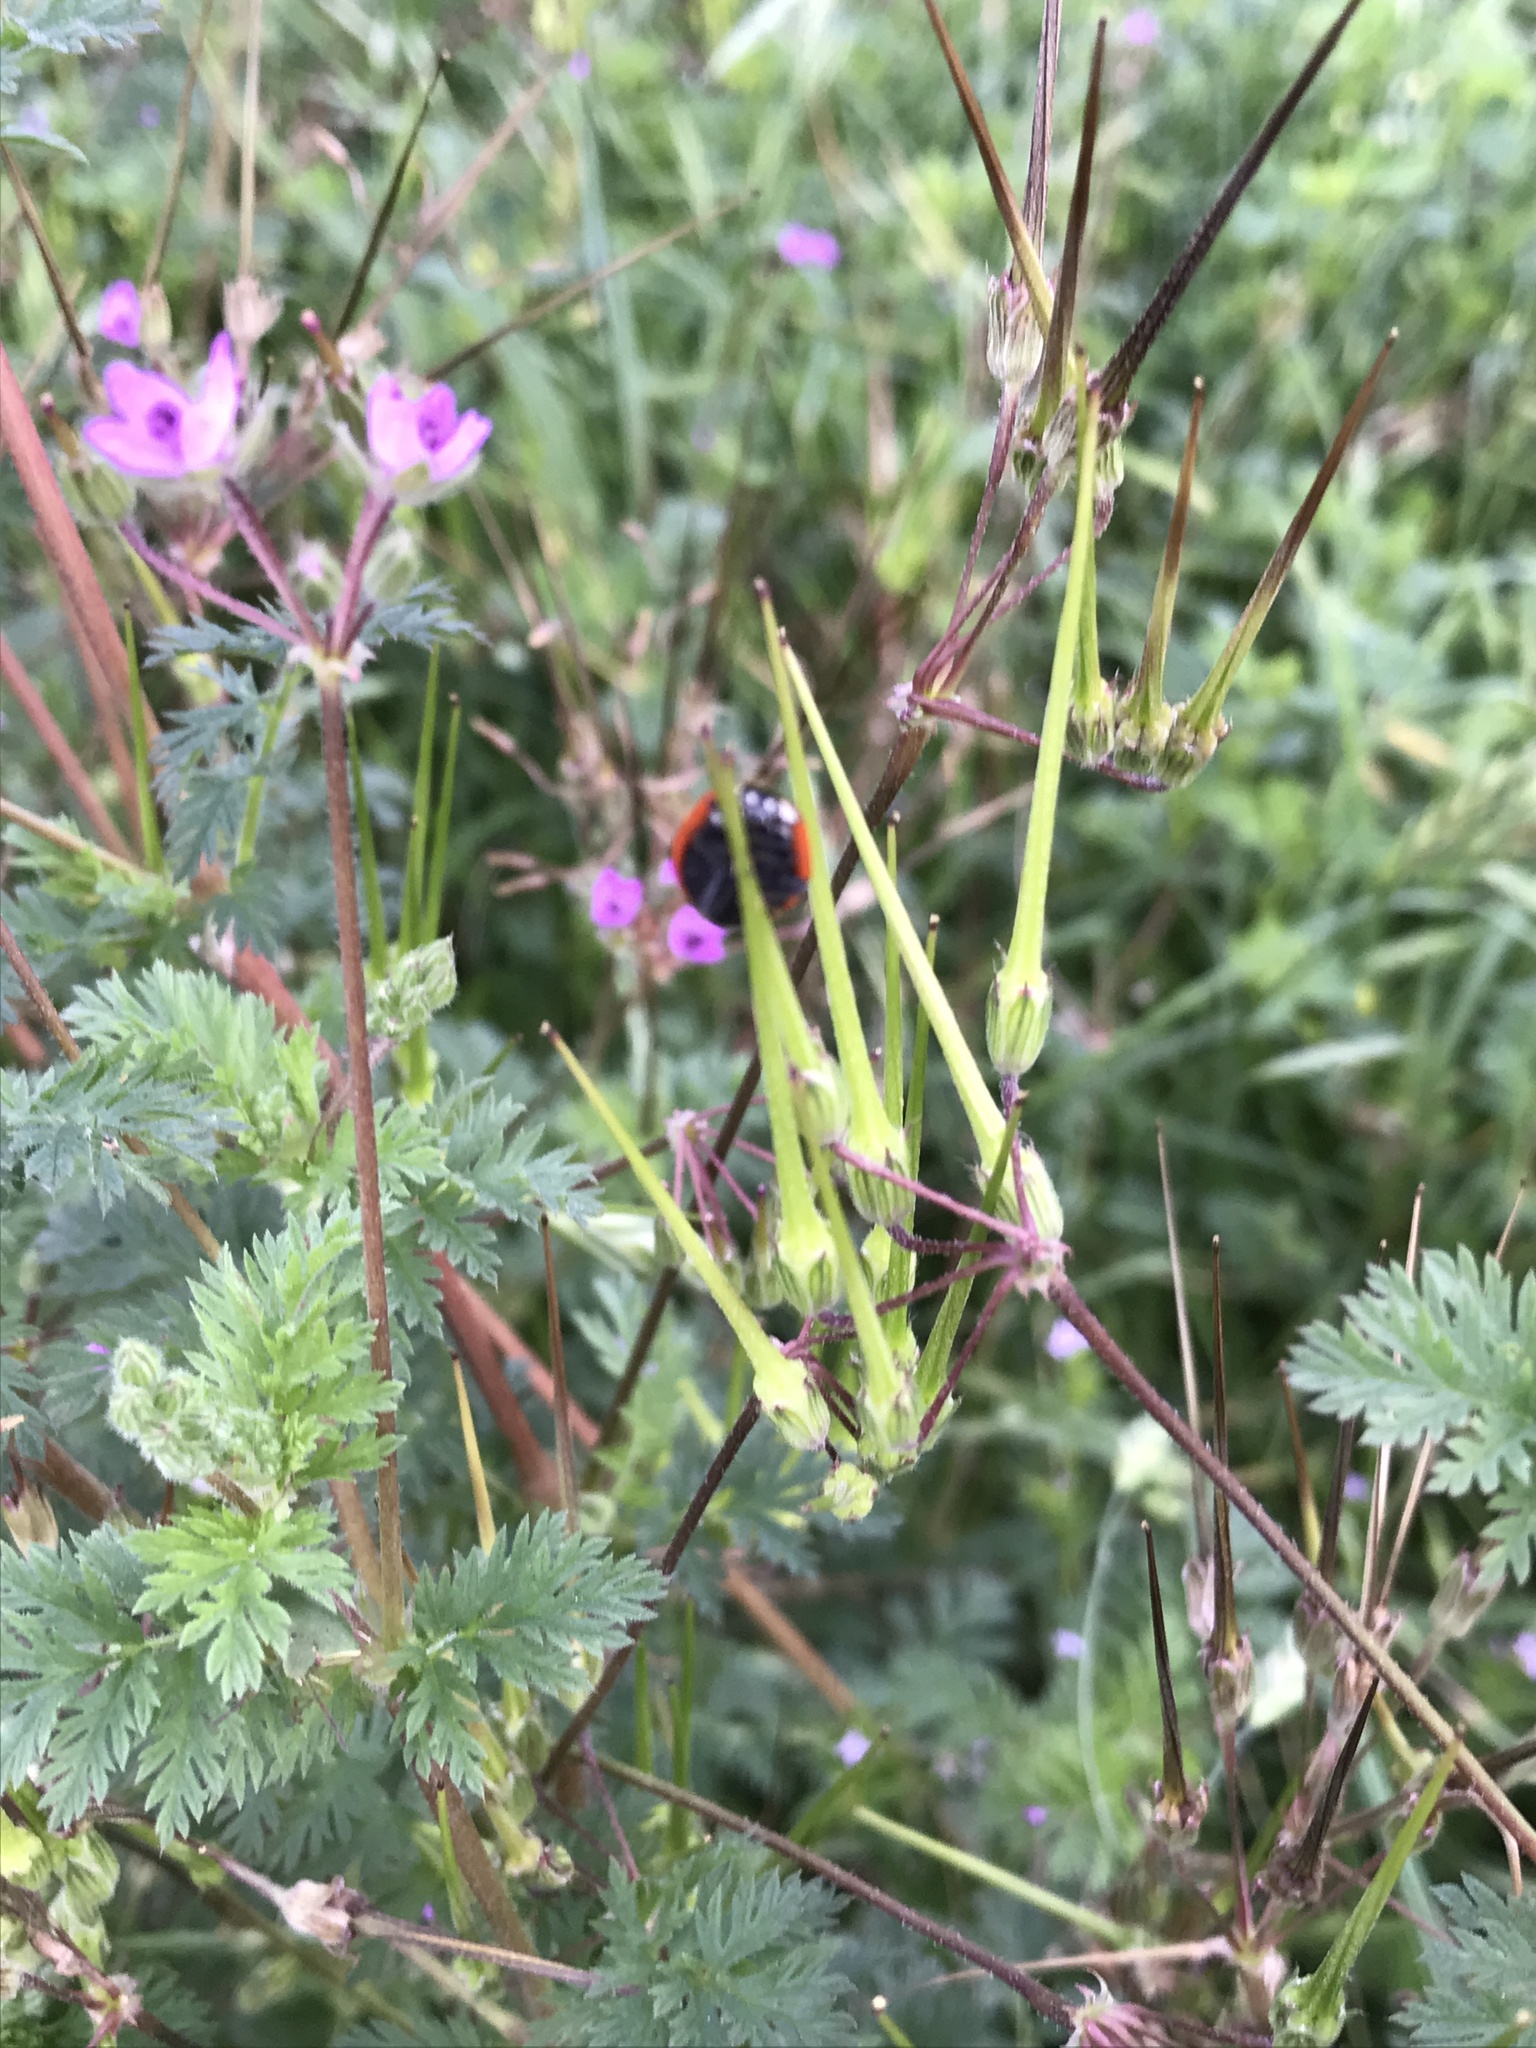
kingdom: Plantae
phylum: Tracheophyta
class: Magnoliopsida
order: Geraniales
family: Geraniaceae
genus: Erodium
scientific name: Erodium cicutarium
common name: Common stork's-bill
